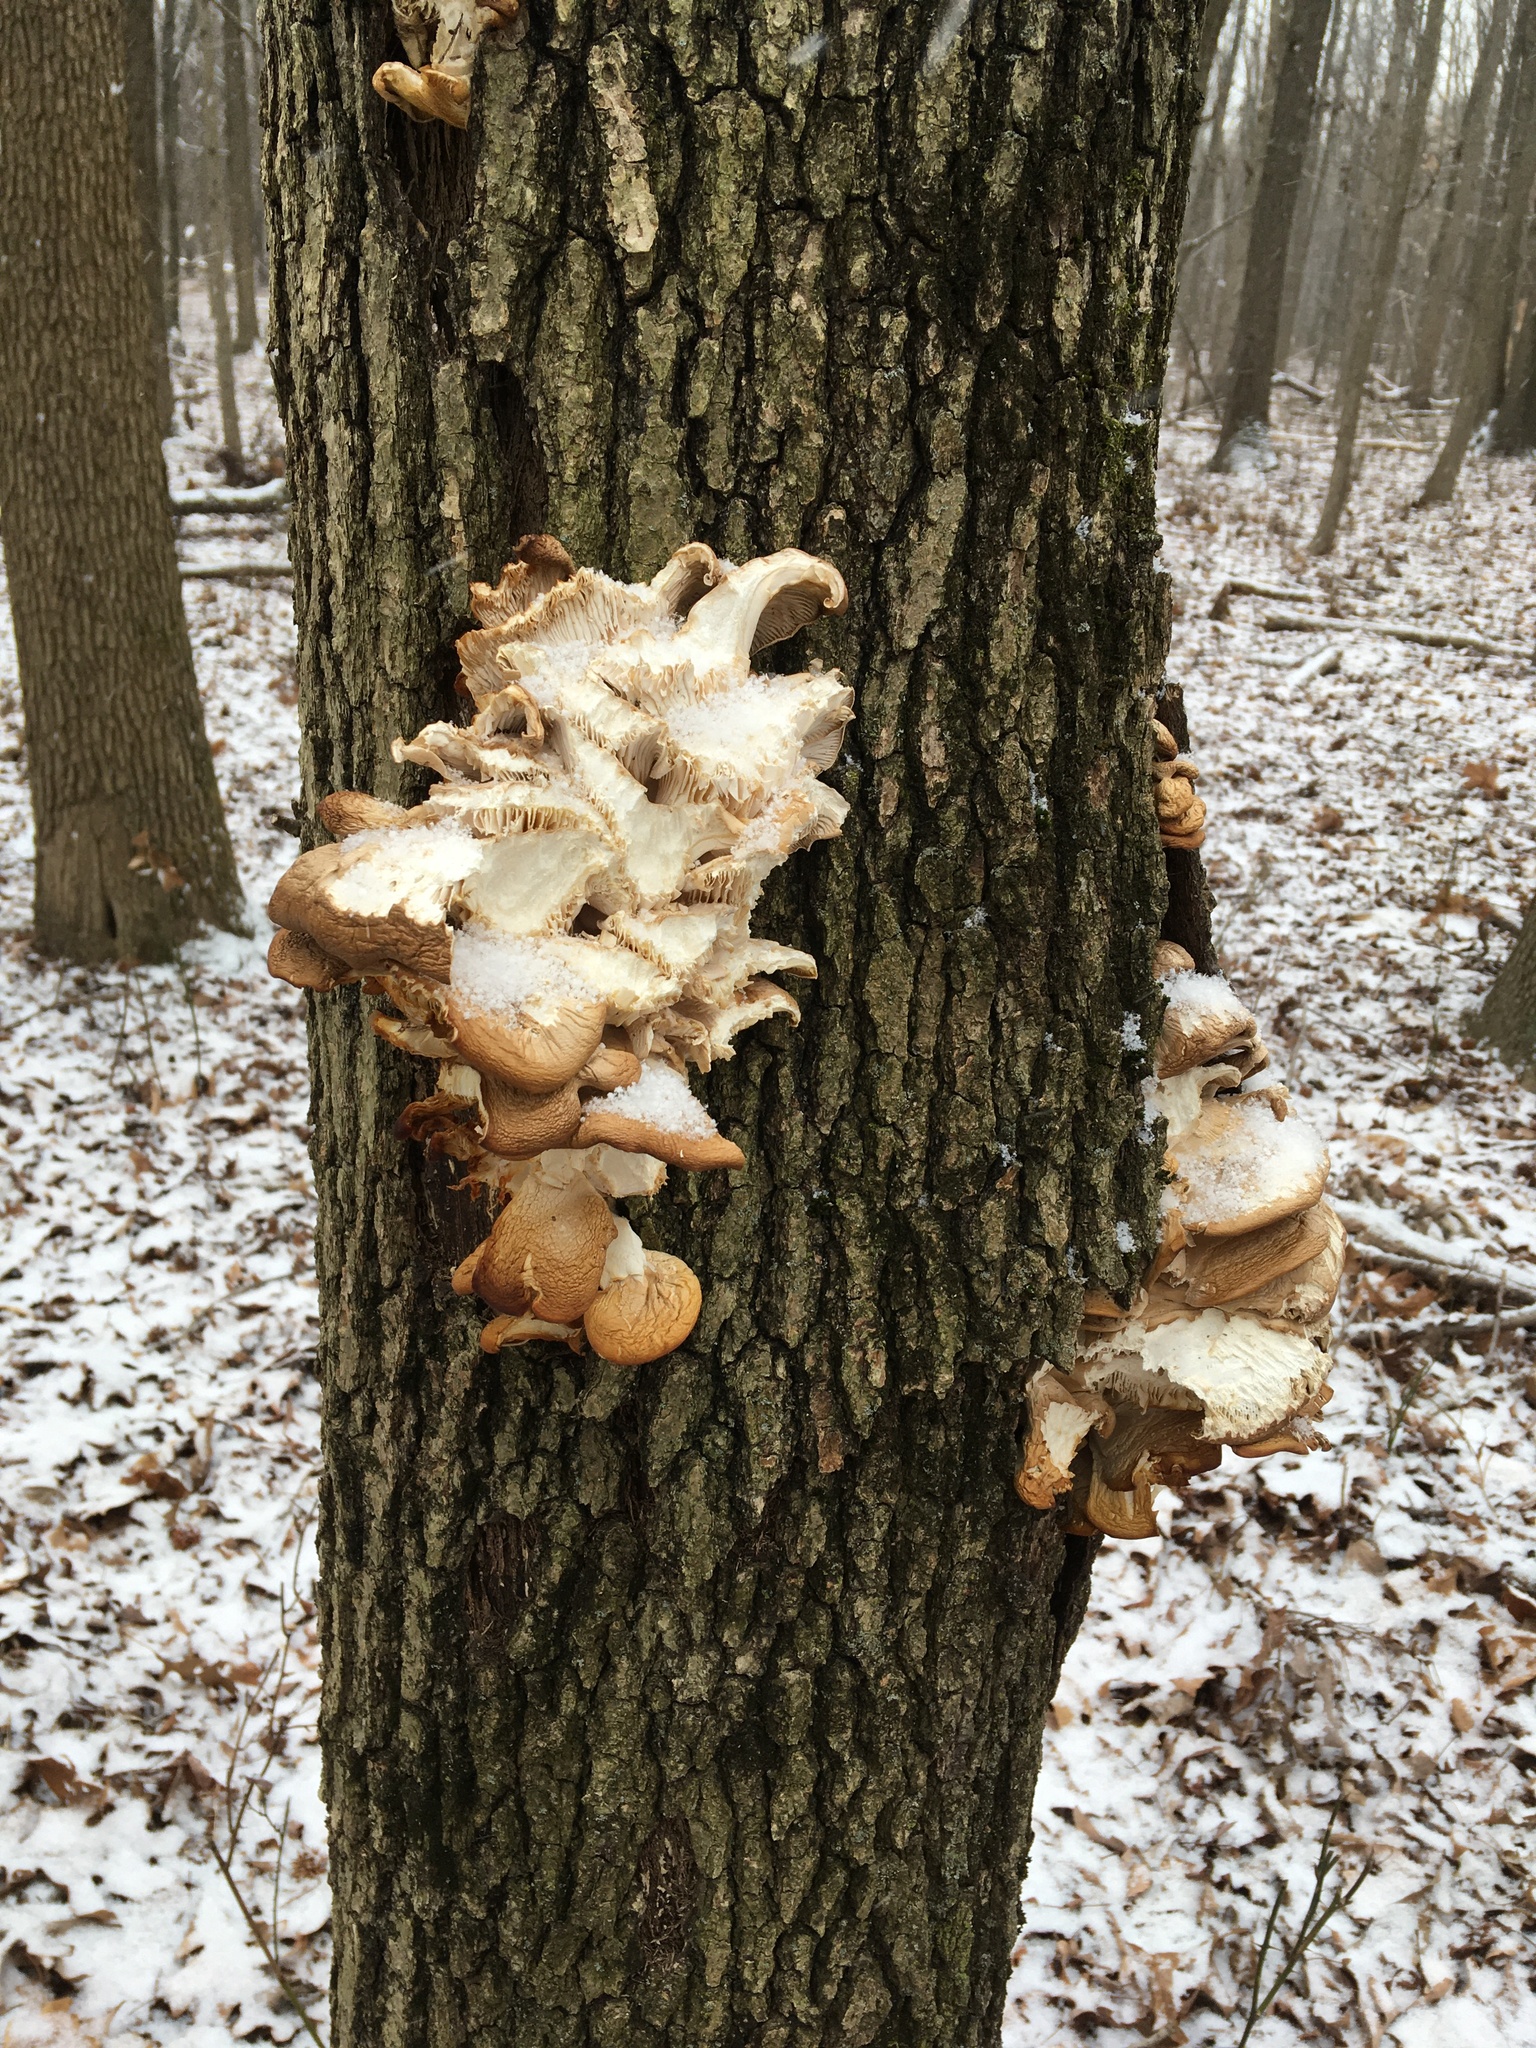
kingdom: Fungi
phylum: Basidiomycota
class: Agaricomycetes
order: Agaricales
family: Pleurotaceae
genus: Pleurotus
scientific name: Pleurotus ostreatus
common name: Oyster mushroom
